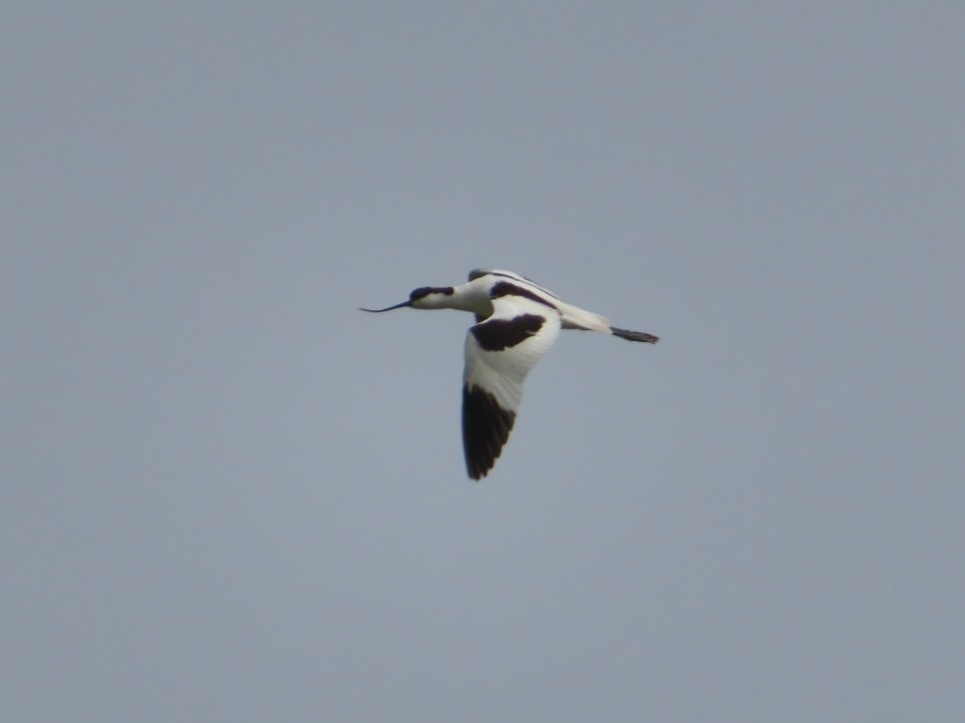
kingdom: Animalia
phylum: Chordata
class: Aves
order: Charadriiformes
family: Recurvirostridae
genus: Recurvirostra
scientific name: Recurvirostra avosetta
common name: Pied avocet
